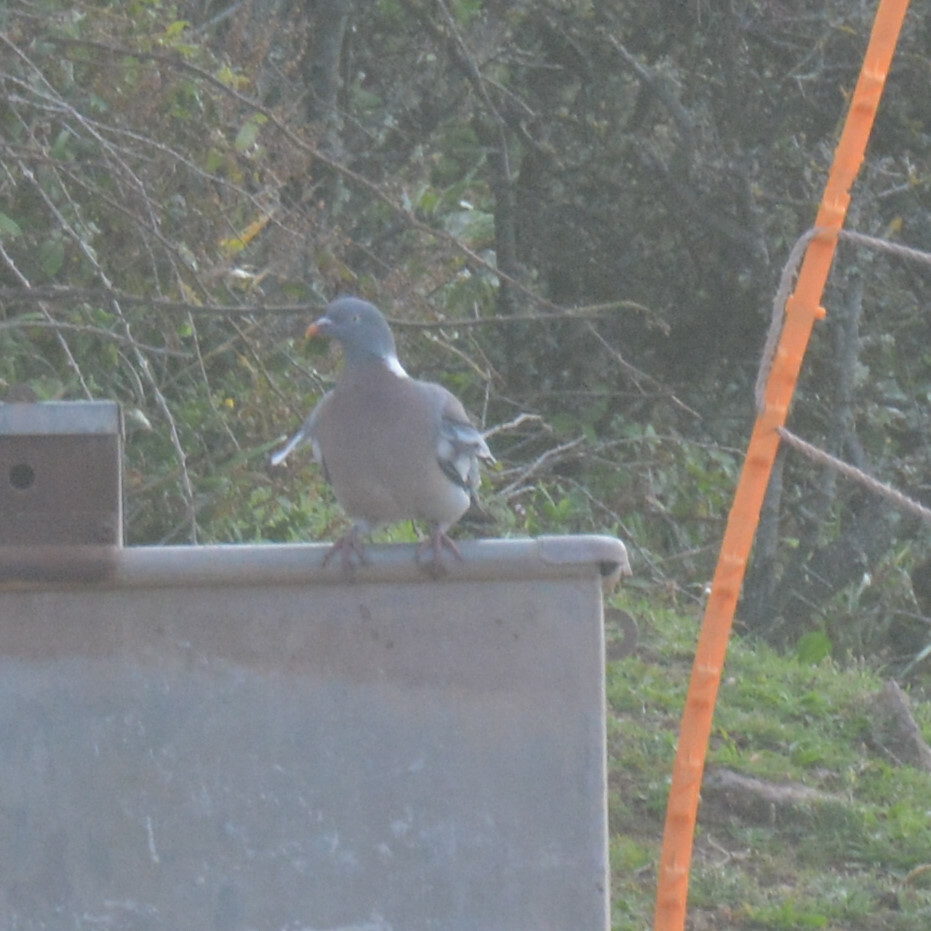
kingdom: Animalia
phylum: Chordata
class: Aves
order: Columbiformes
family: Columbidae
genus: Columba
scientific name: Columba palumbus
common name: Common wood pigeon
